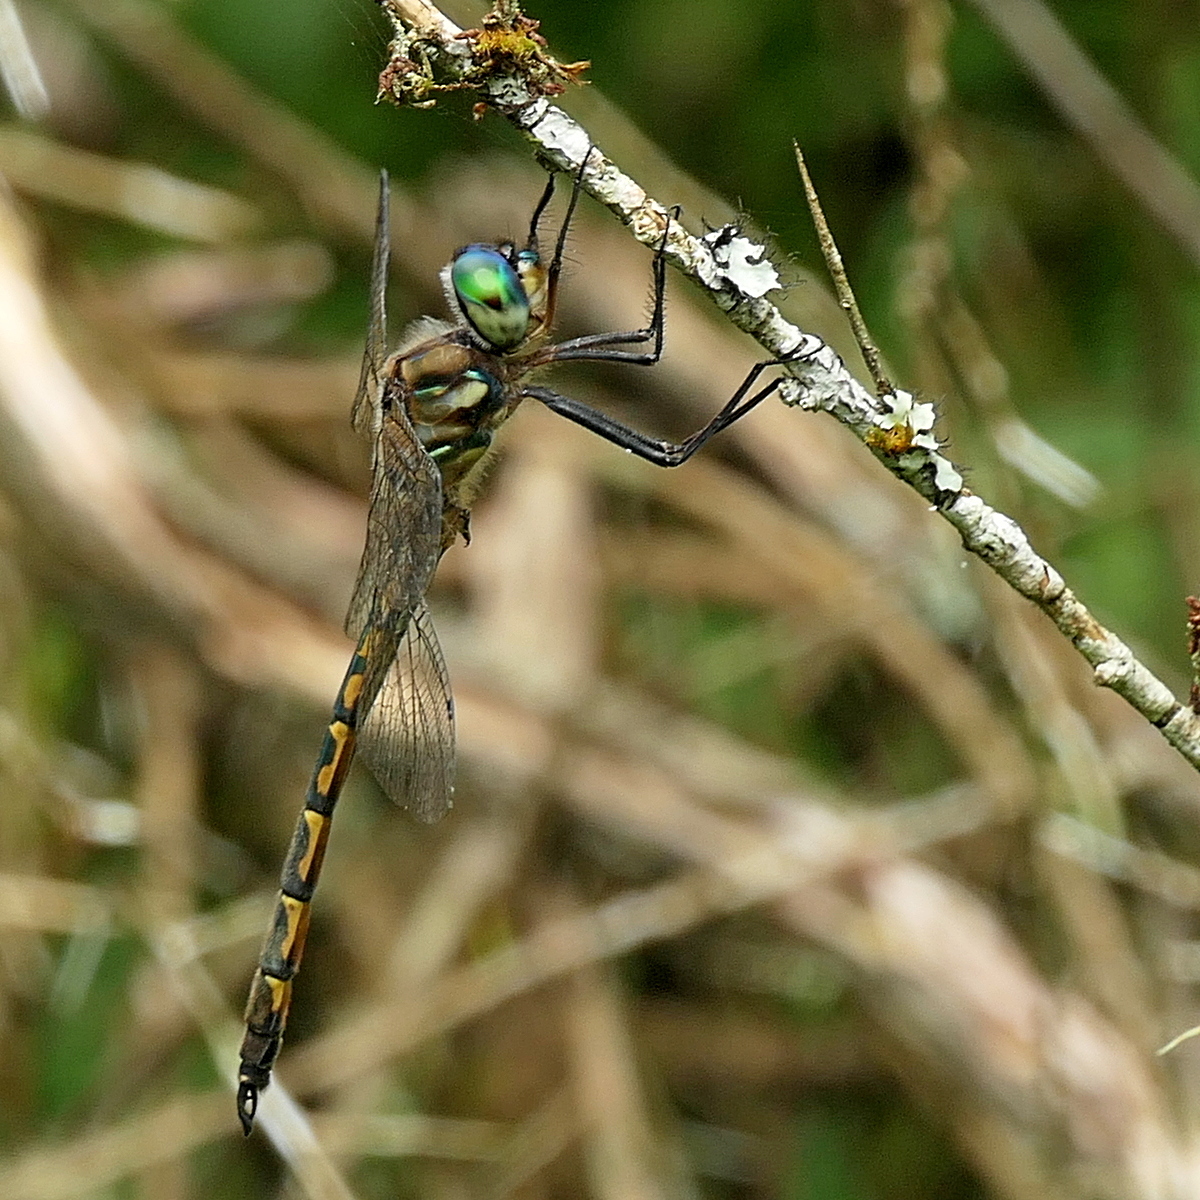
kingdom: Animalia
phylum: Arthropoda
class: Insecta
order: Odonata
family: Corduliidae
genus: Hemicordulia
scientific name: Hemicordulia australiae
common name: Sentry dragonfly
